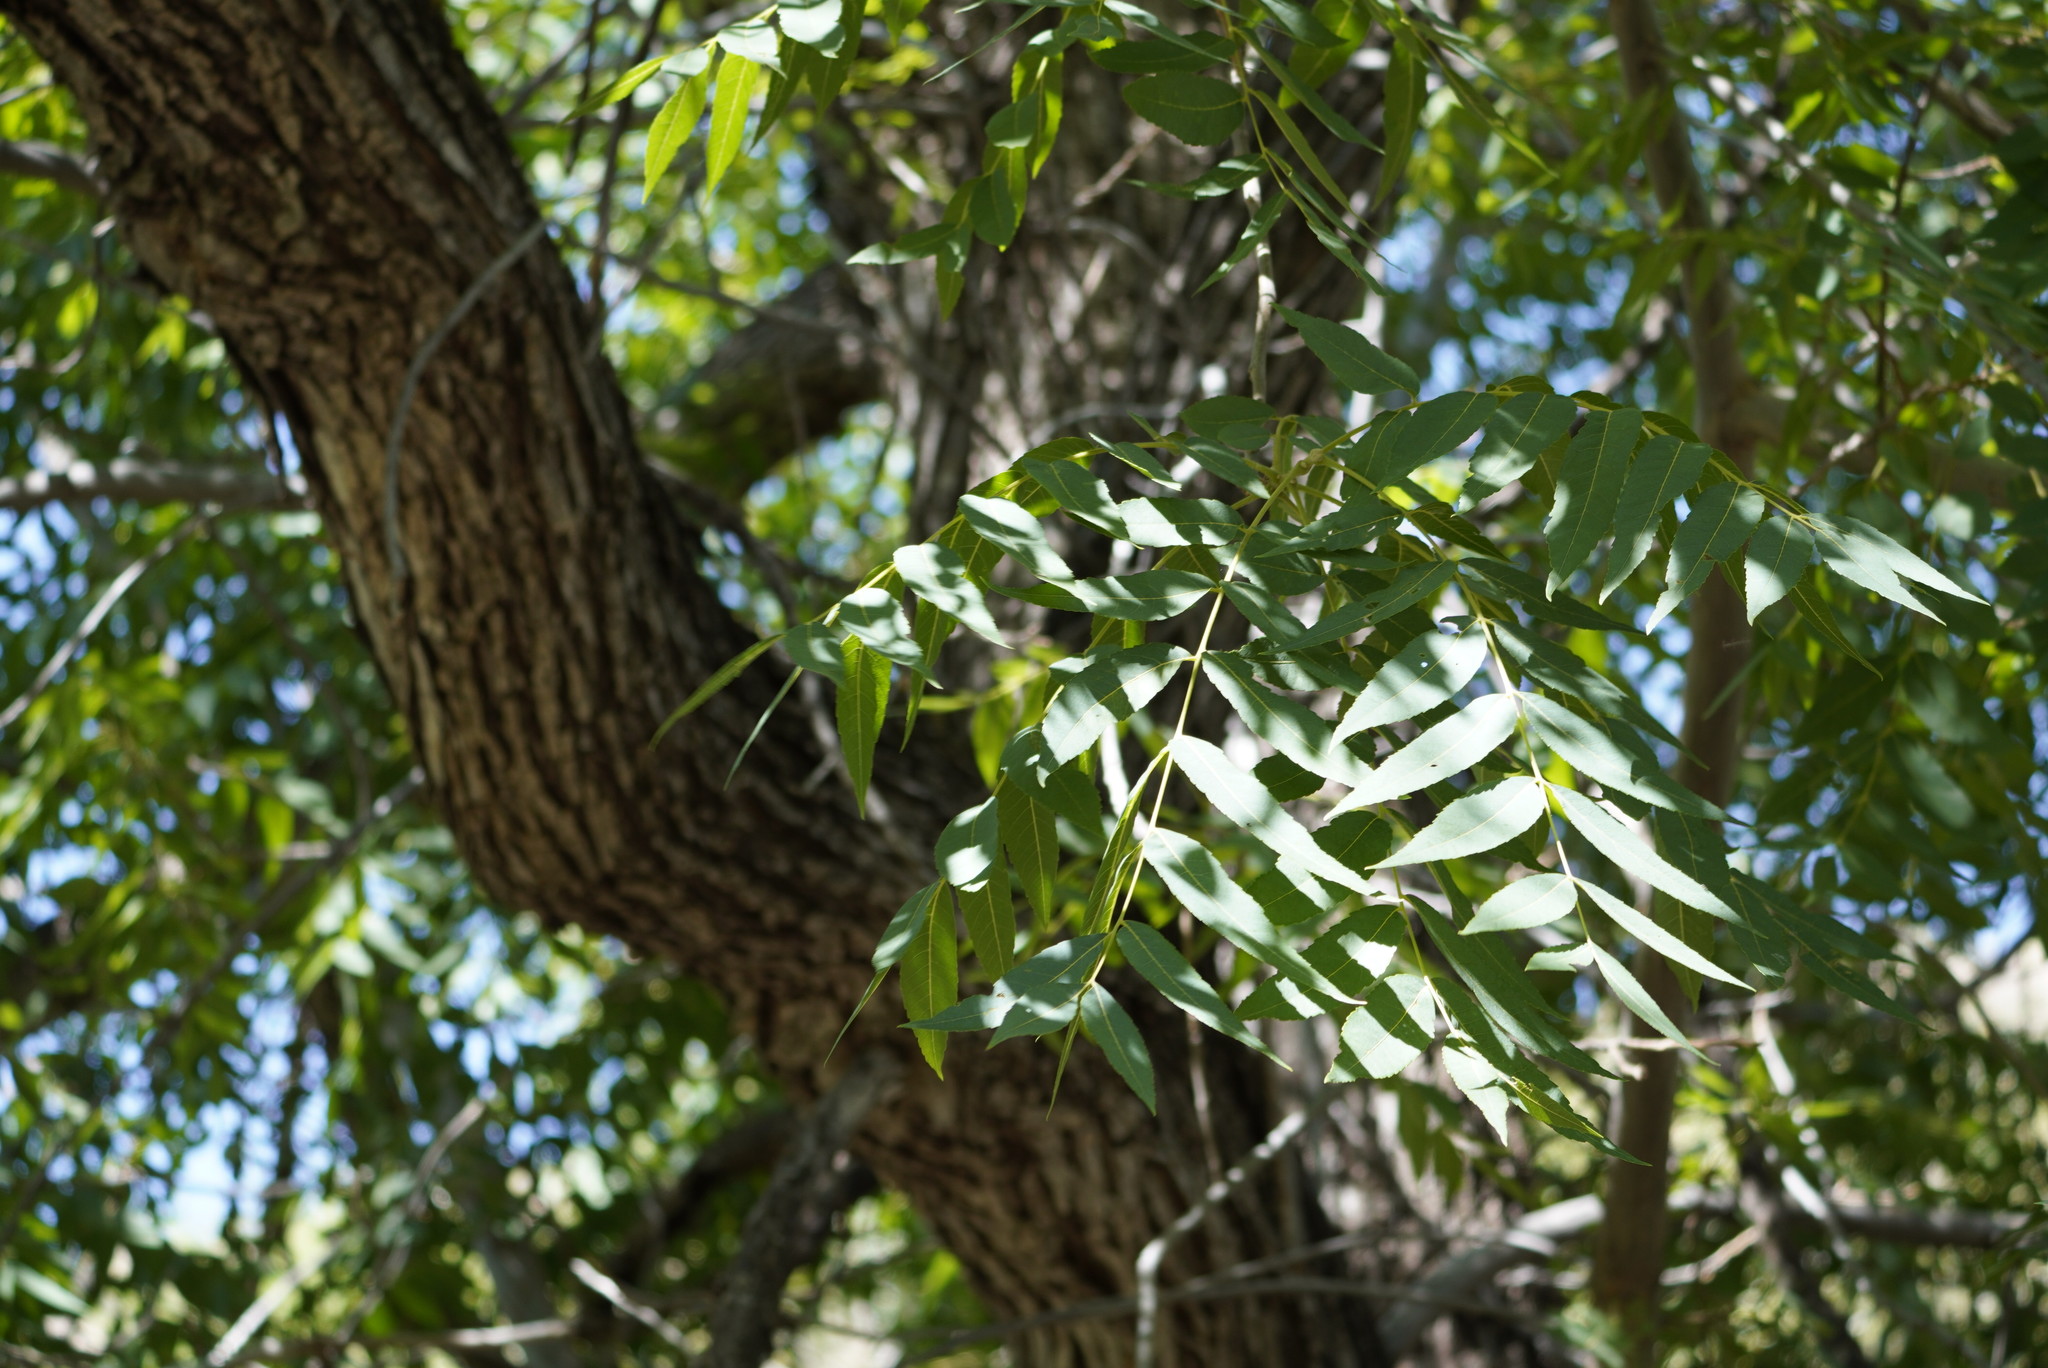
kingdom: Plantae
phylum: Tracheophyta
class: Magnoliopsida
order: Fagales
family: Juglandaceae
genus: Juglans
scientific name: Juglans major
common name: Arizona walnut
